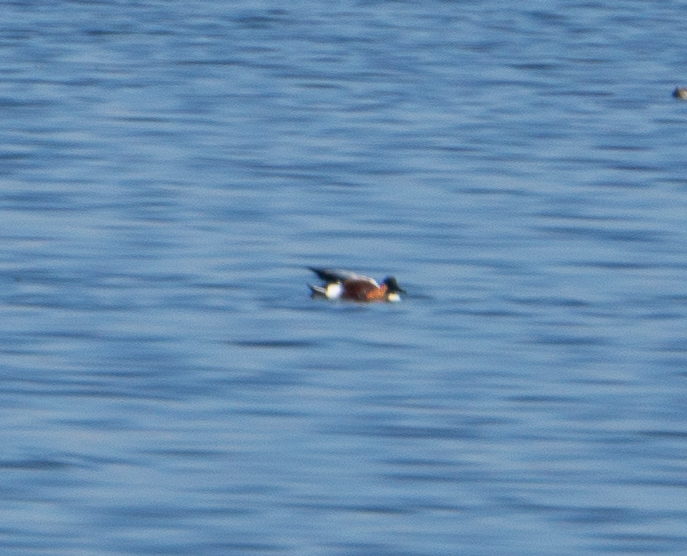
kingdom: Animalia
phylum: Chordata
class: Aves
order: Anseriformes
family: Anatidae
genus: Spatula
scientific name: Spatula clypeata
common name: Northern shoveler
